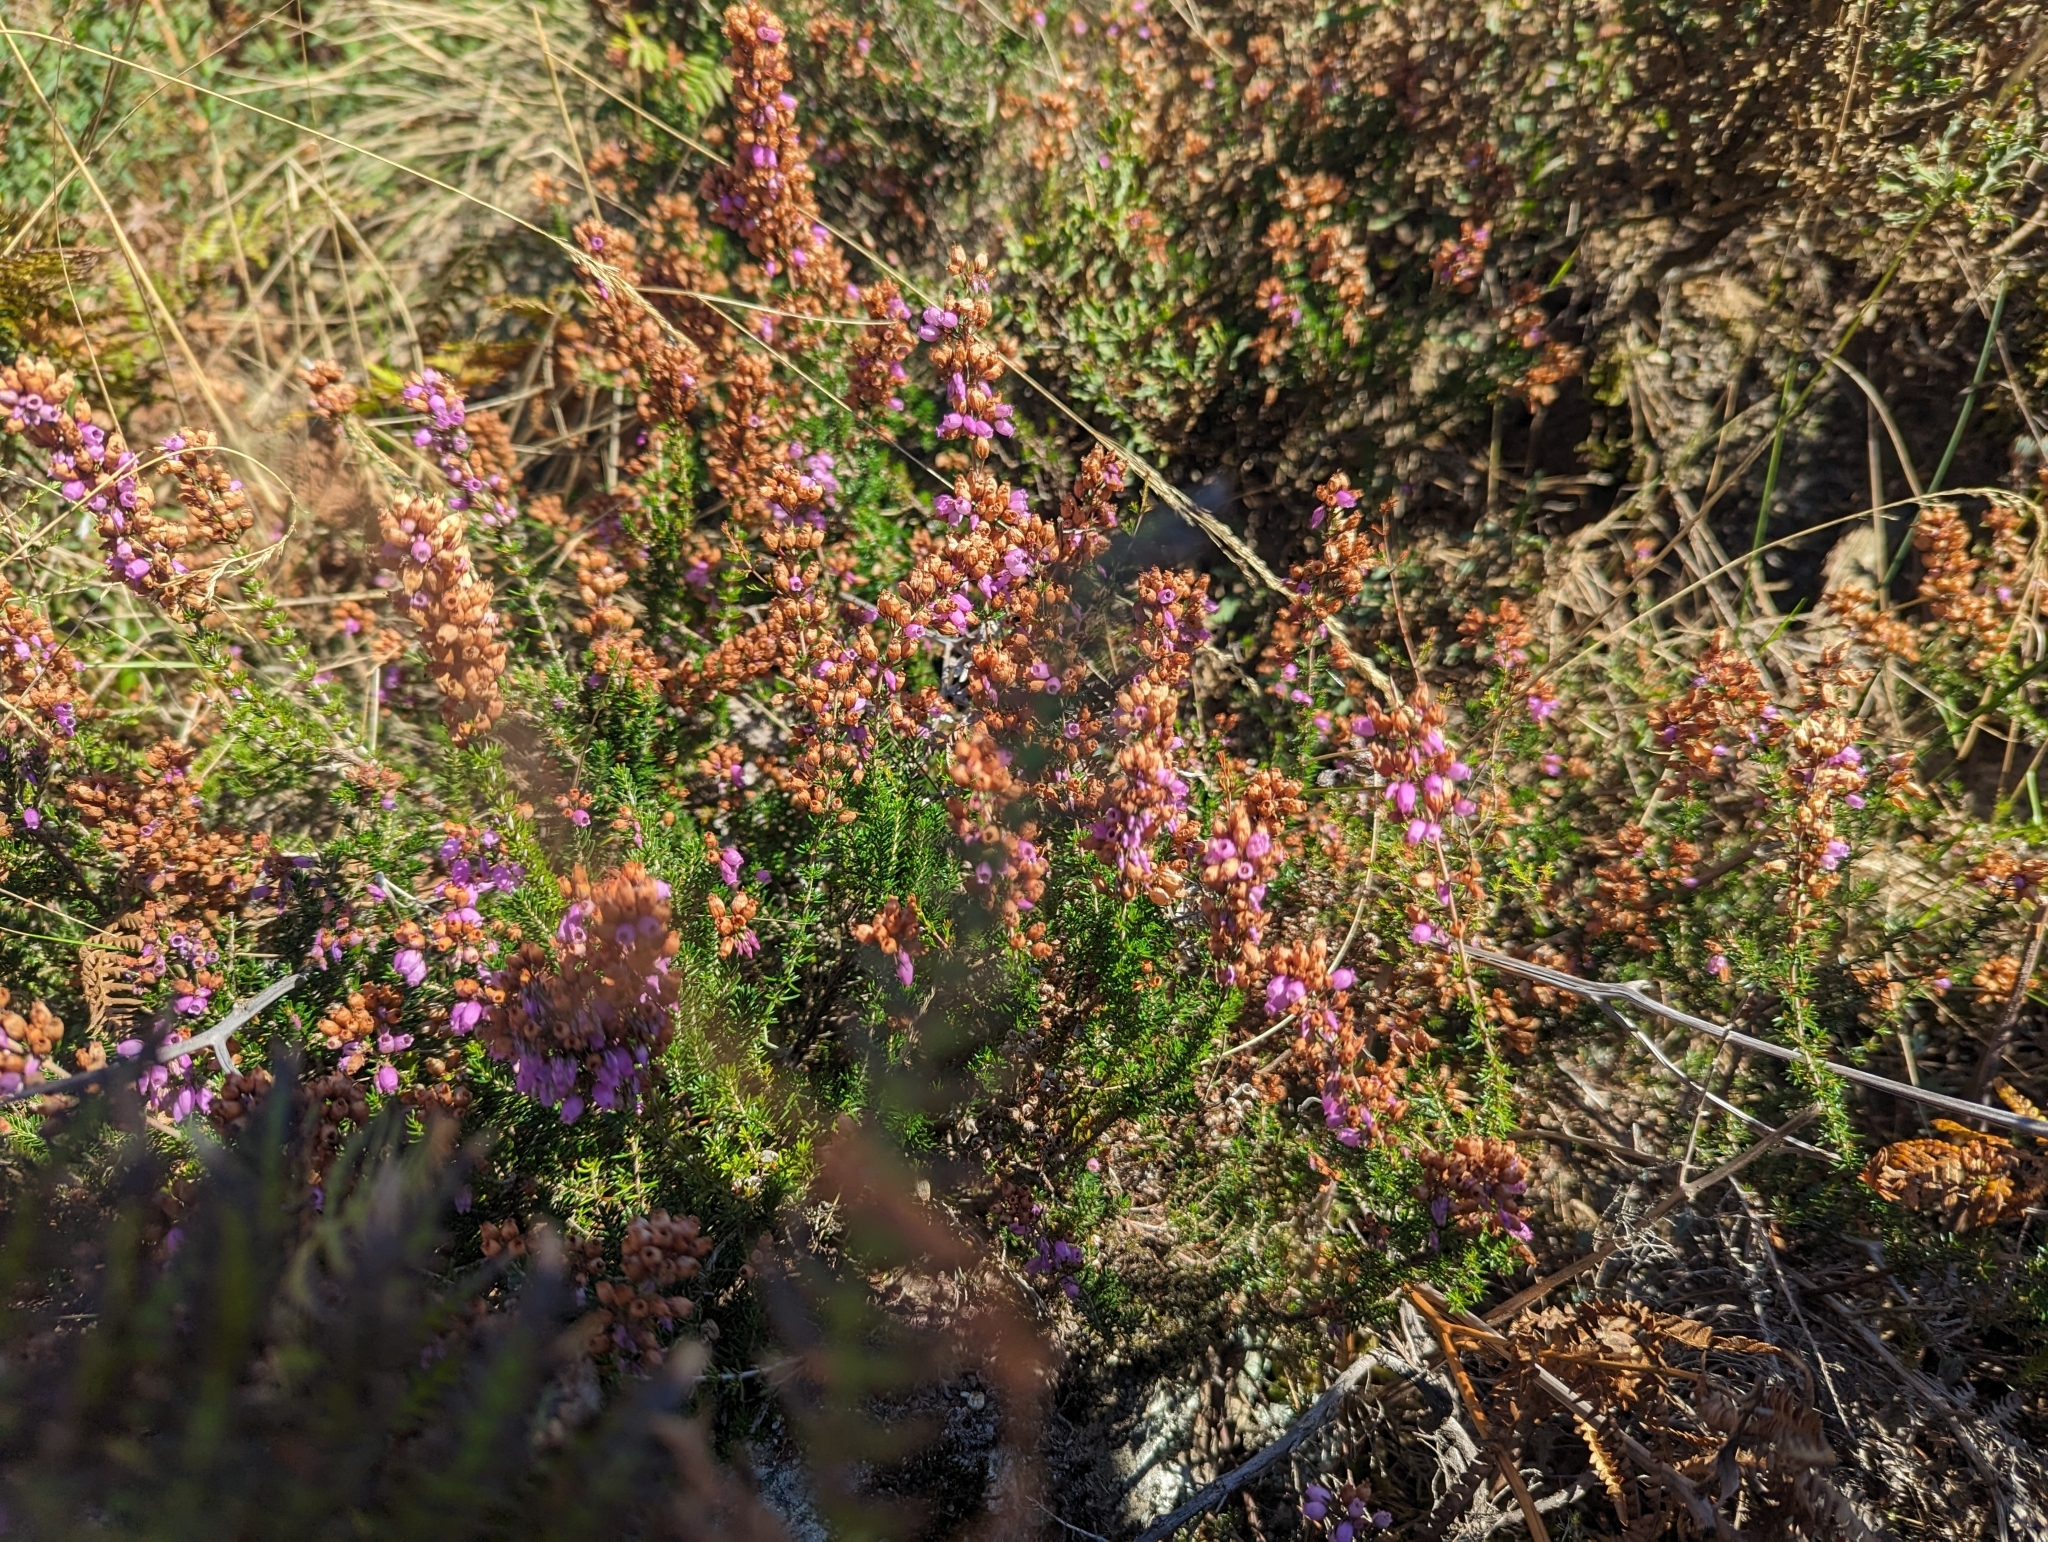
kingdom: Plantae
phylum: Tracheophyta
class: Magnoliopsida
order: Ericales
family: Ericaceae
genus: Erica
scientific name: Erica cinerea
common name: Bell heather
